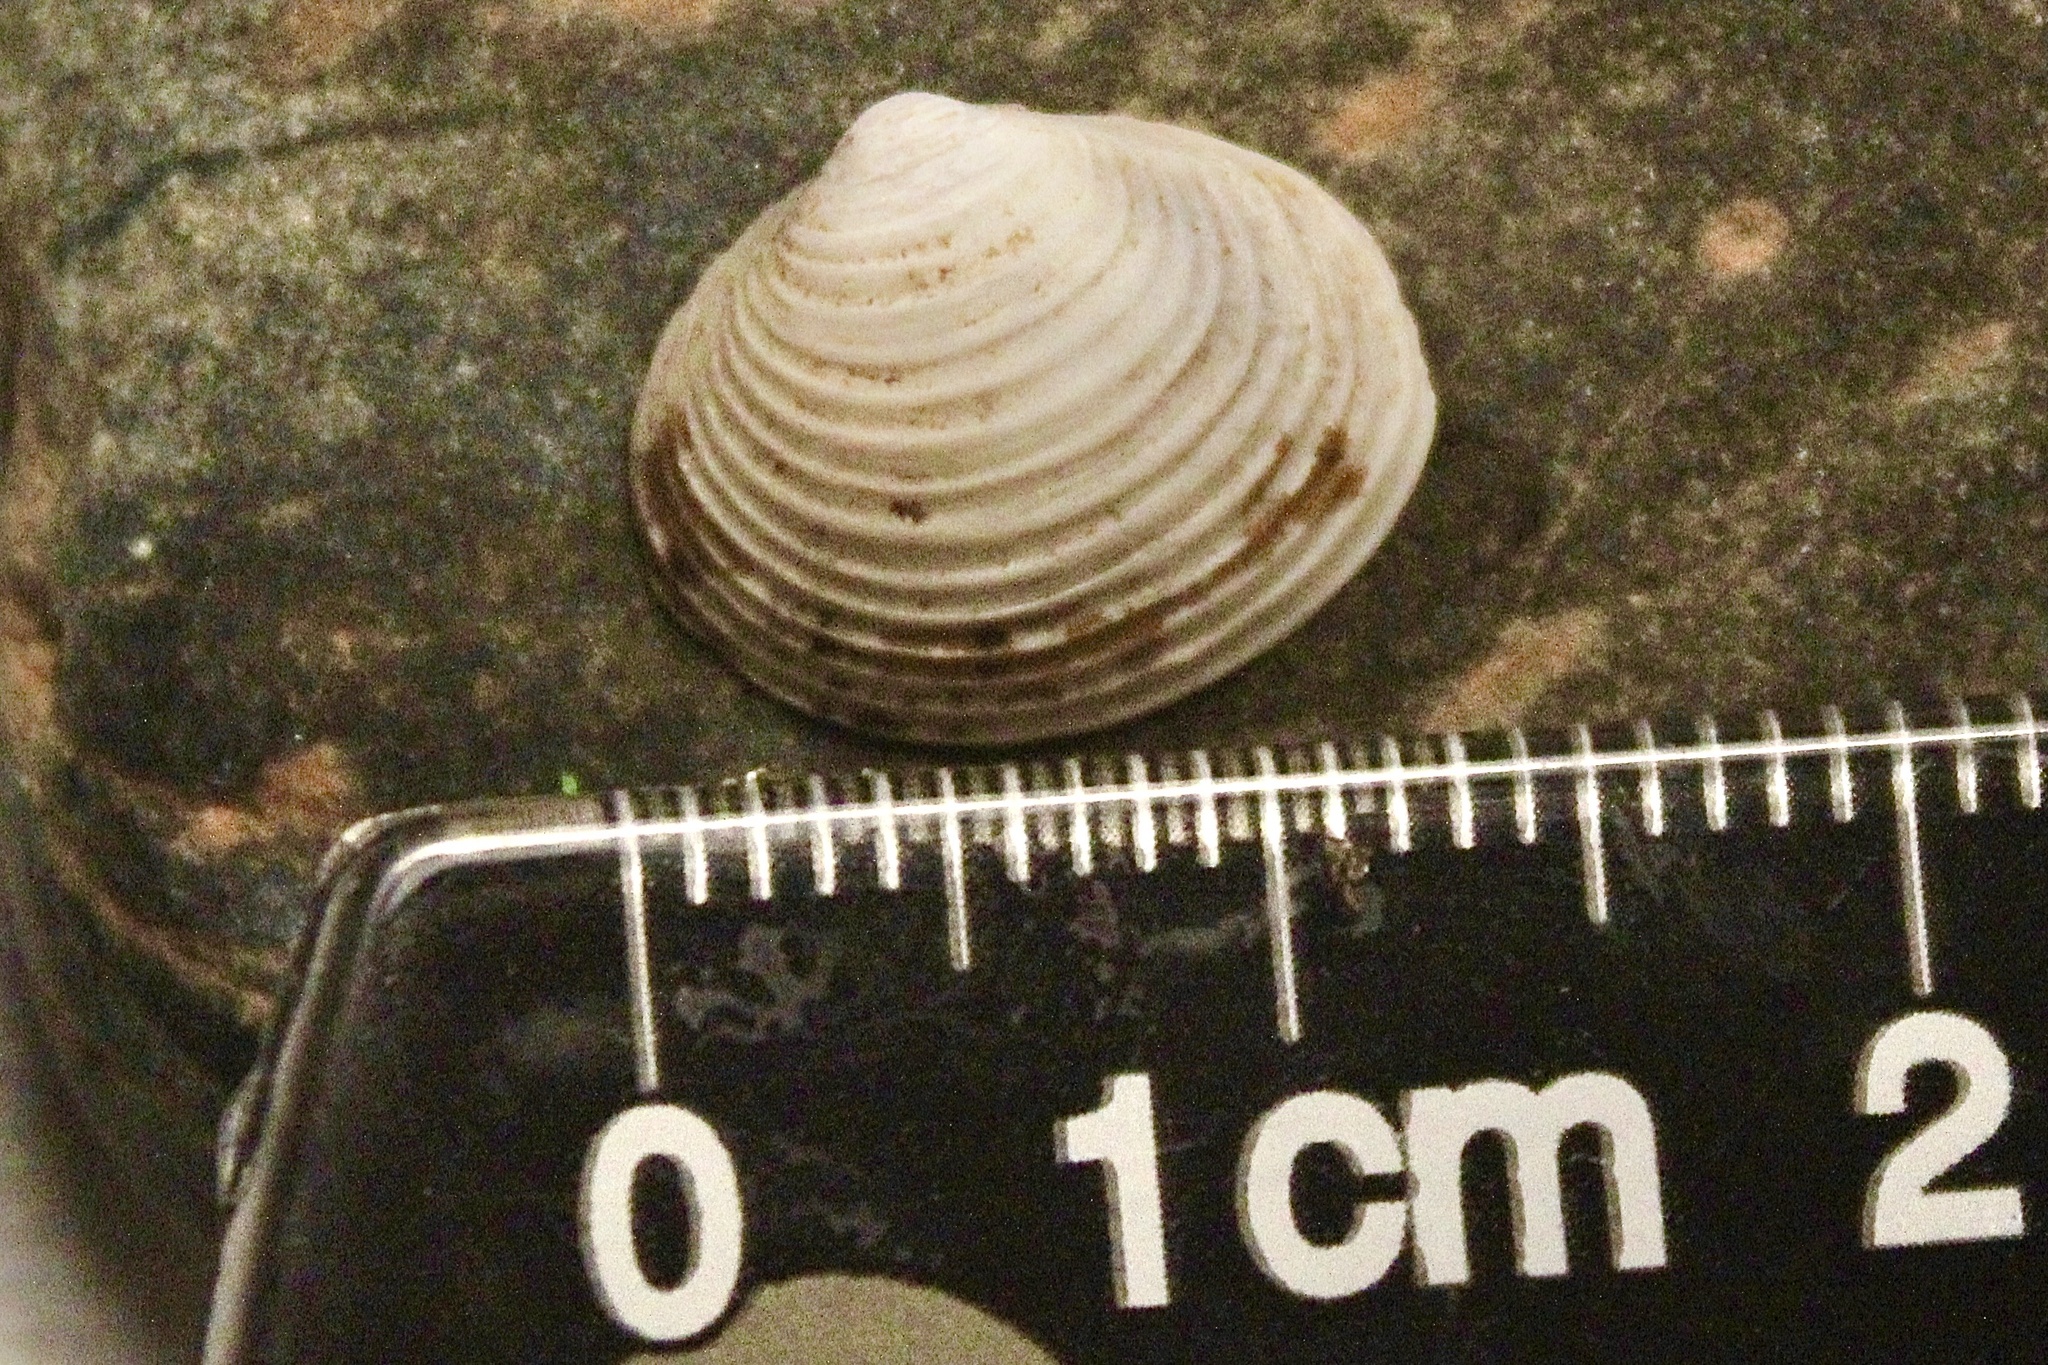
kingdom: Animalia
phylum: Mollusca
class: Bivalvia
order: Venerida
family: Cyrenidae
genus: Corbicula
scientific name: Corbicula fluminea
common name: Asian clam
